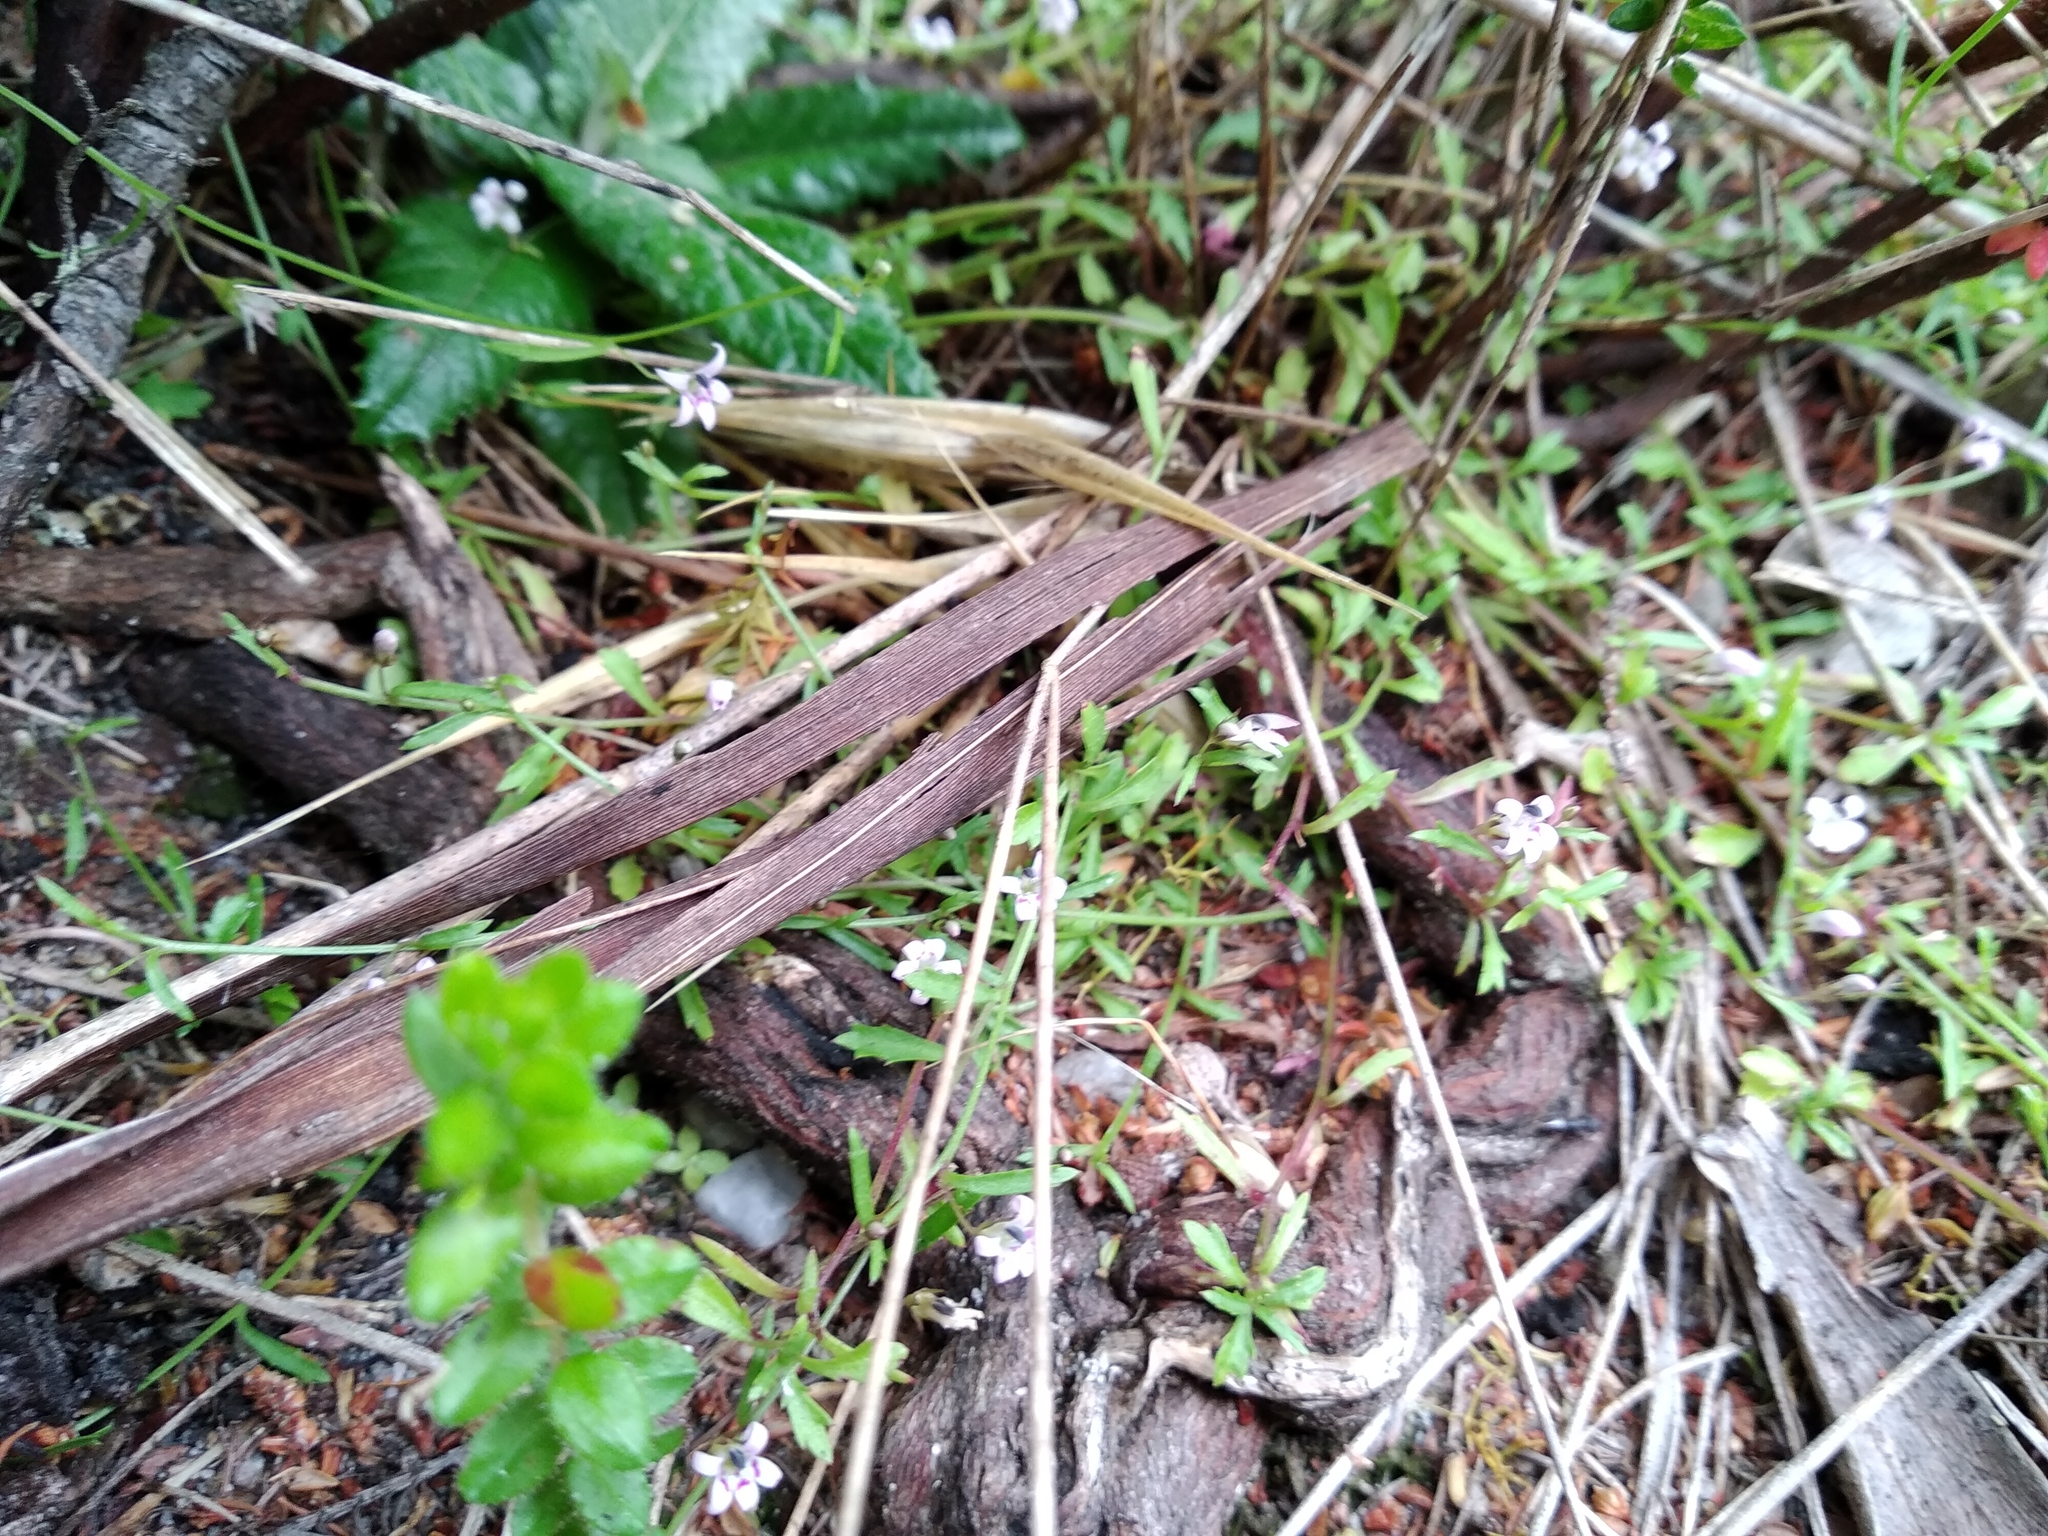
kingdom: Plantae
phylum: Tracheophyta
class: Magnoliopsida
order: Asterales
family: Campanulaceae
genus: Lobelia
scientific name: Lobelia eckloniana
